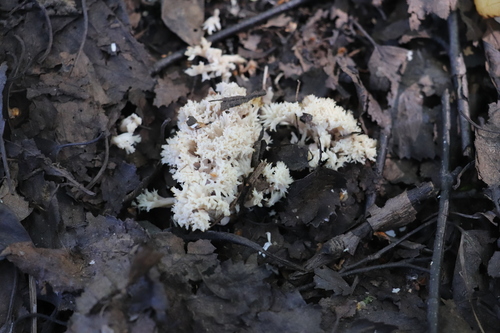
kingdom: Fungi
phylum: Basidiomycota
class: Agaricomycetes
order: Cantharellales
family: Hydnaceae
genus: Clavulina
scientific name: Clavulina coralloides
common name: Crested coral
